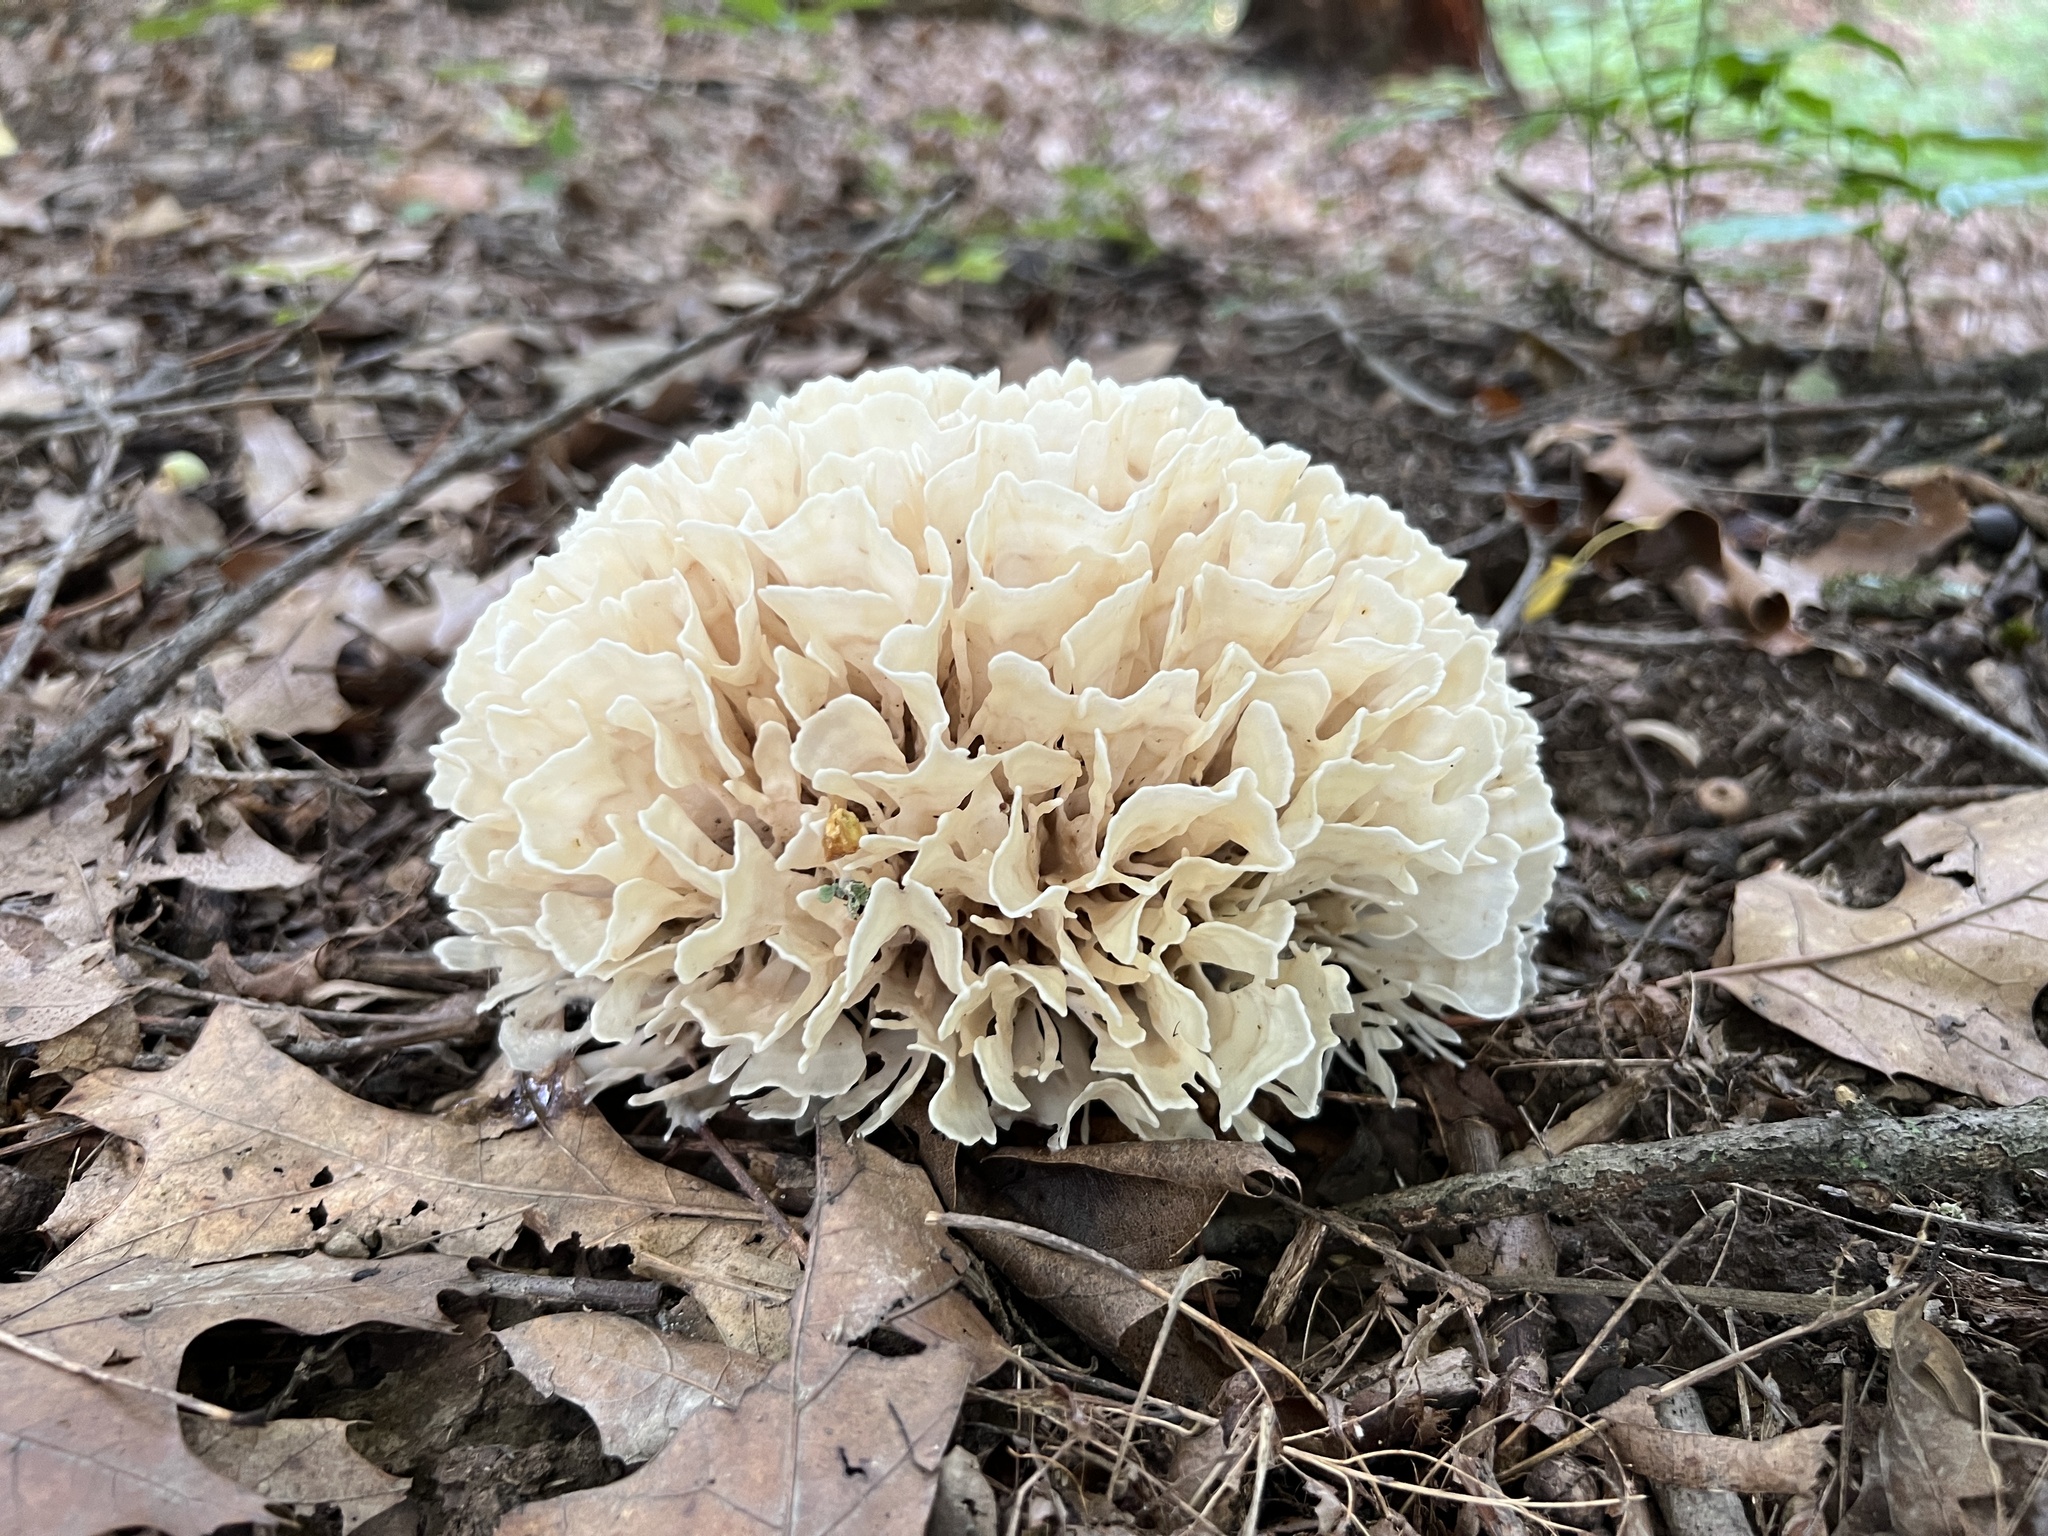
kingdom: Fungi
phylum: Basidiomycota
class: Agaricomycetes
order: Polyporales
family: Sparassidaceae
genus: Sparassis
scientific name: Sparassis spathulata
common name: Eastern cauliflower mushroom
